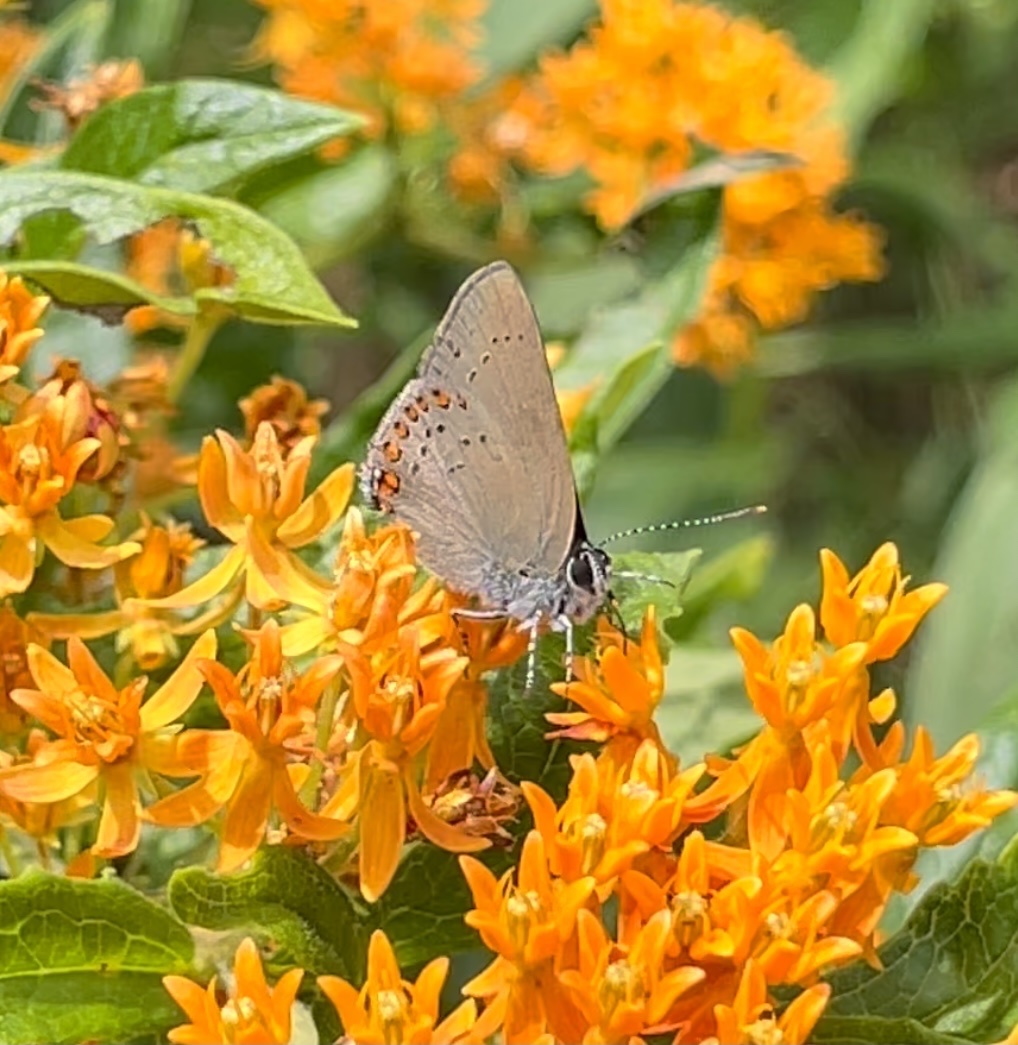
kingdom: Animalia
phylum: Arthropoda
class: Insecta
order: Lepidoptera
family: Lycaenidae
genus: Harkenclenus
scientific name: Harkenclenus titus
